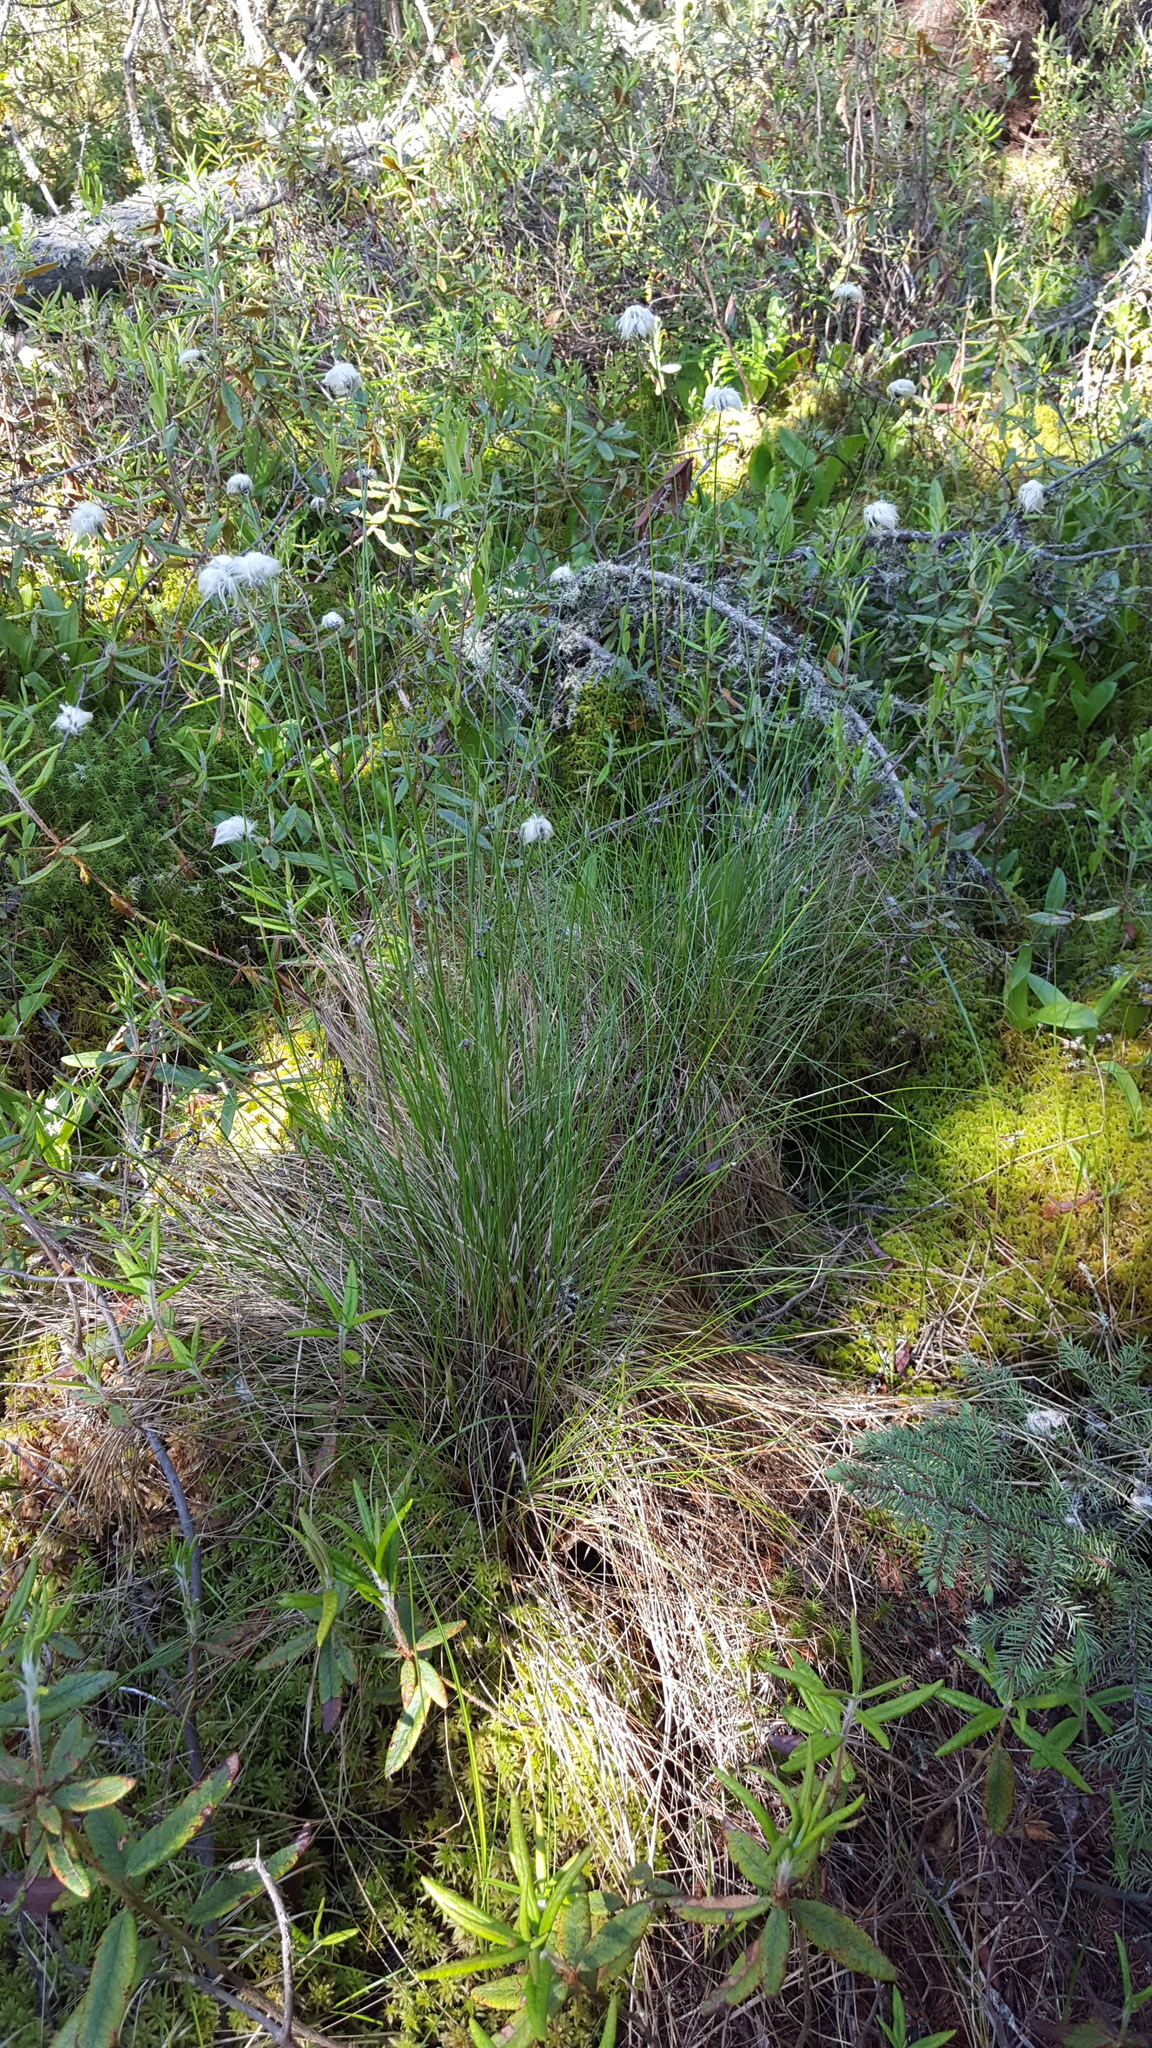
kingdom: Plantae
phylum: Tracheophyta
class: Liliopsida
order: Poales
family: Cyperaceae
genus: Eriophorum
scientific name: Eriophorum vaginatum
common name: Hare's-tail cottongrass
